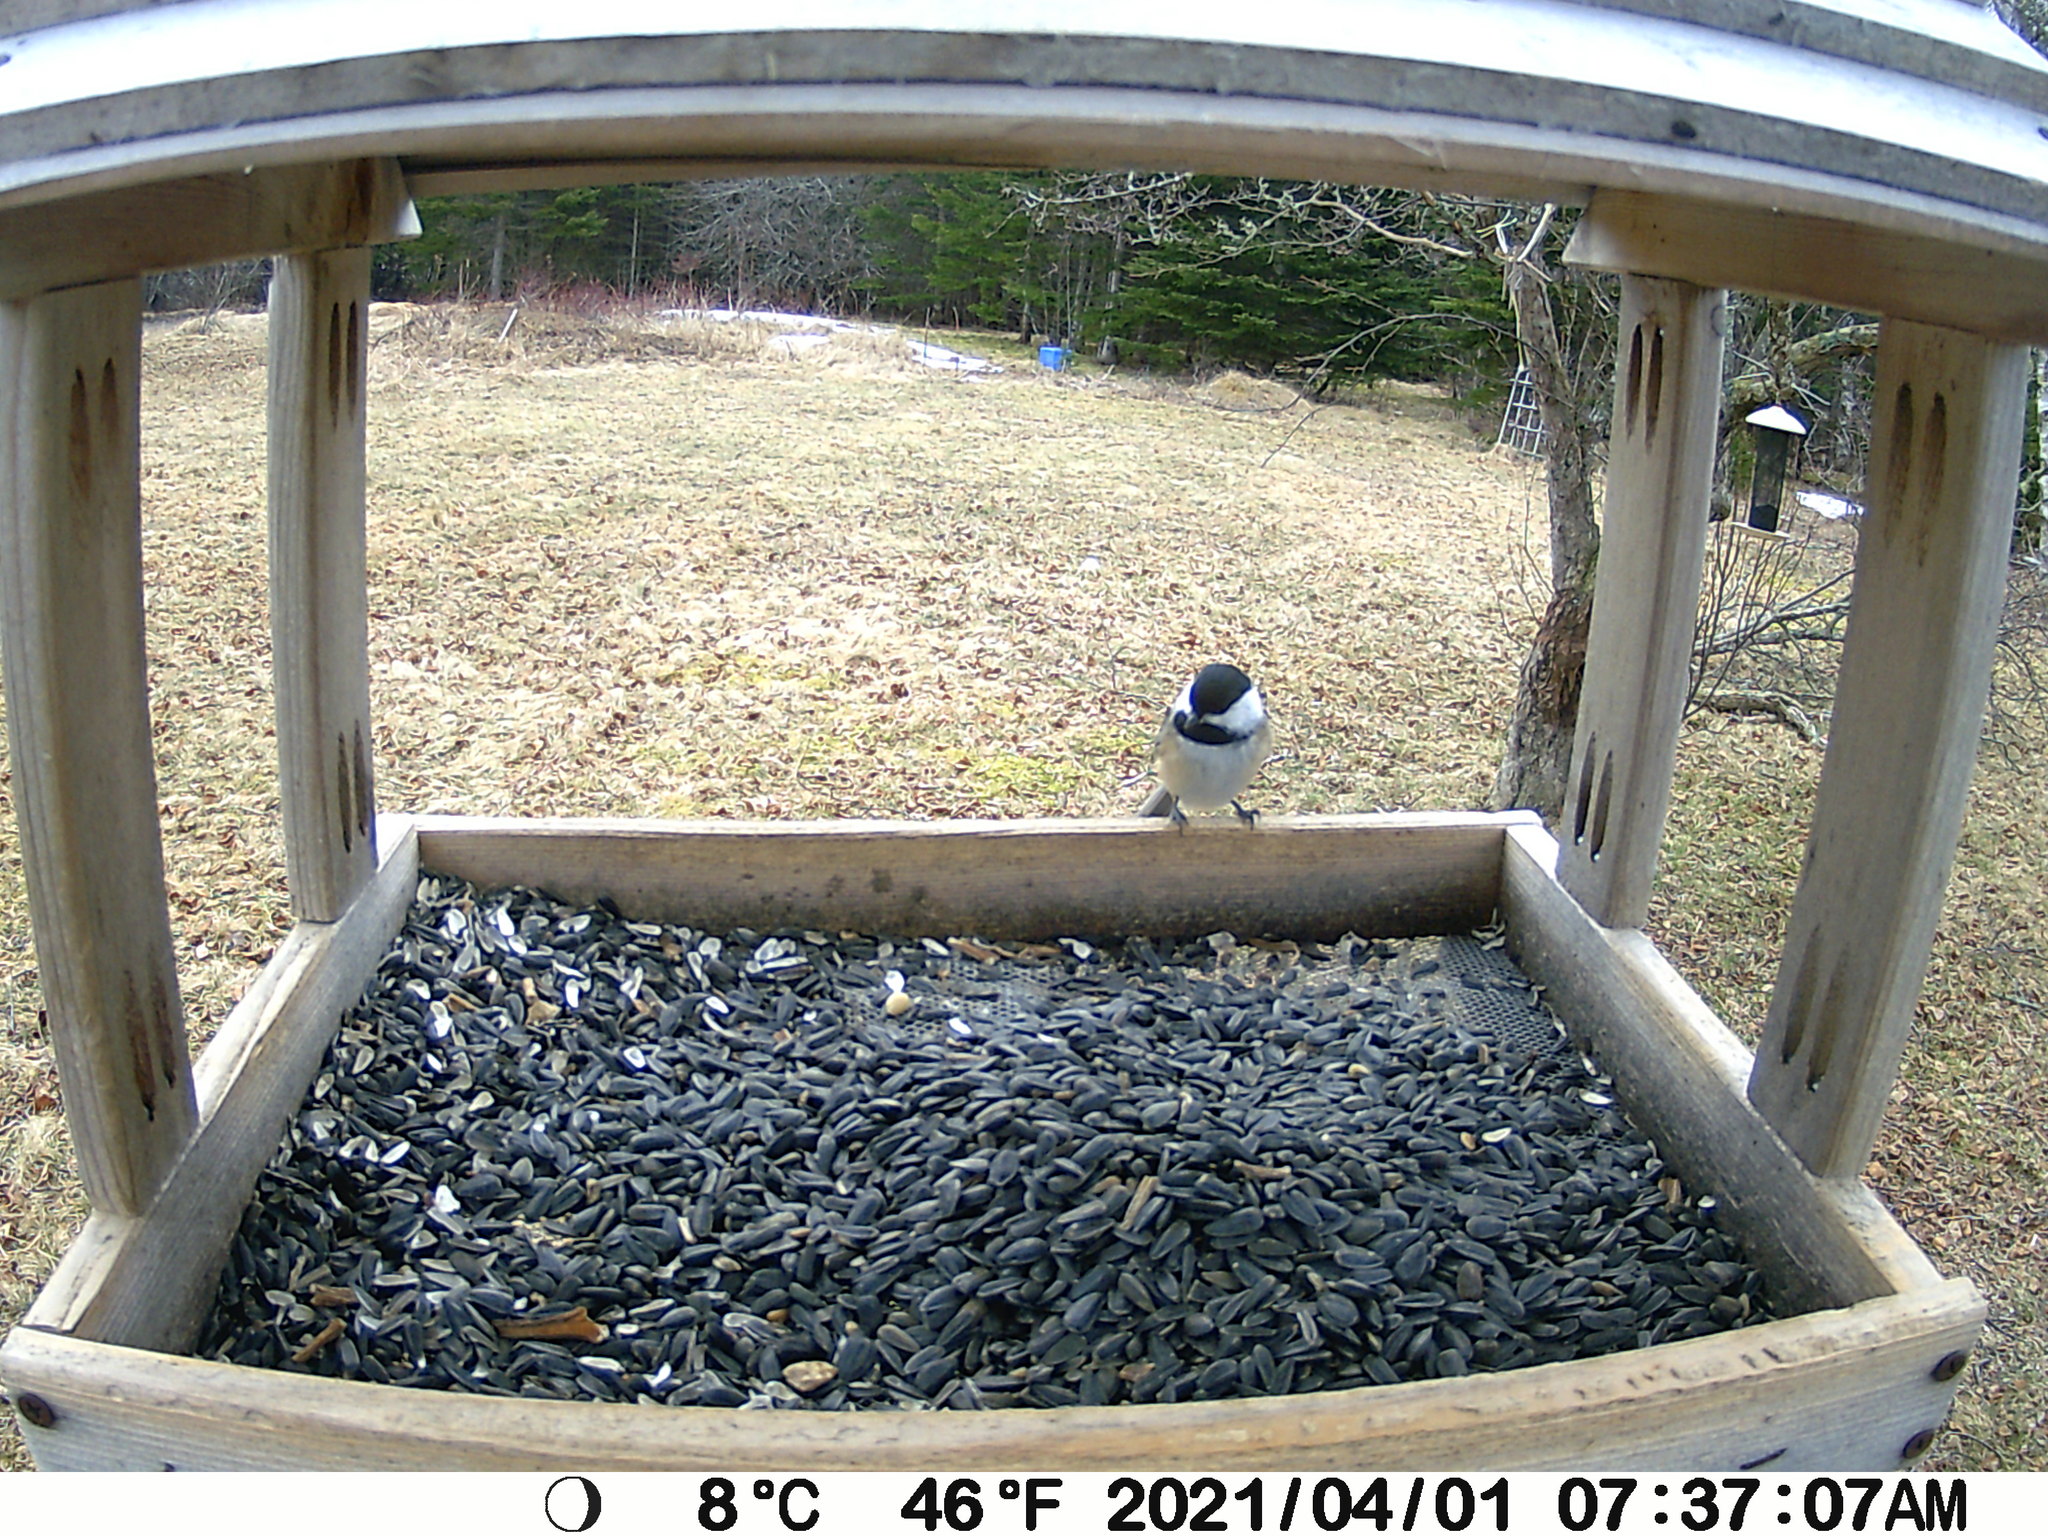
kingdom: Animalia
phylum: Chordata
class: Aves
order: Passeriformes
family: Paridae
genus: Poecile
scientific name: Poecile atricapillus
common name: Black-capped chickadee
